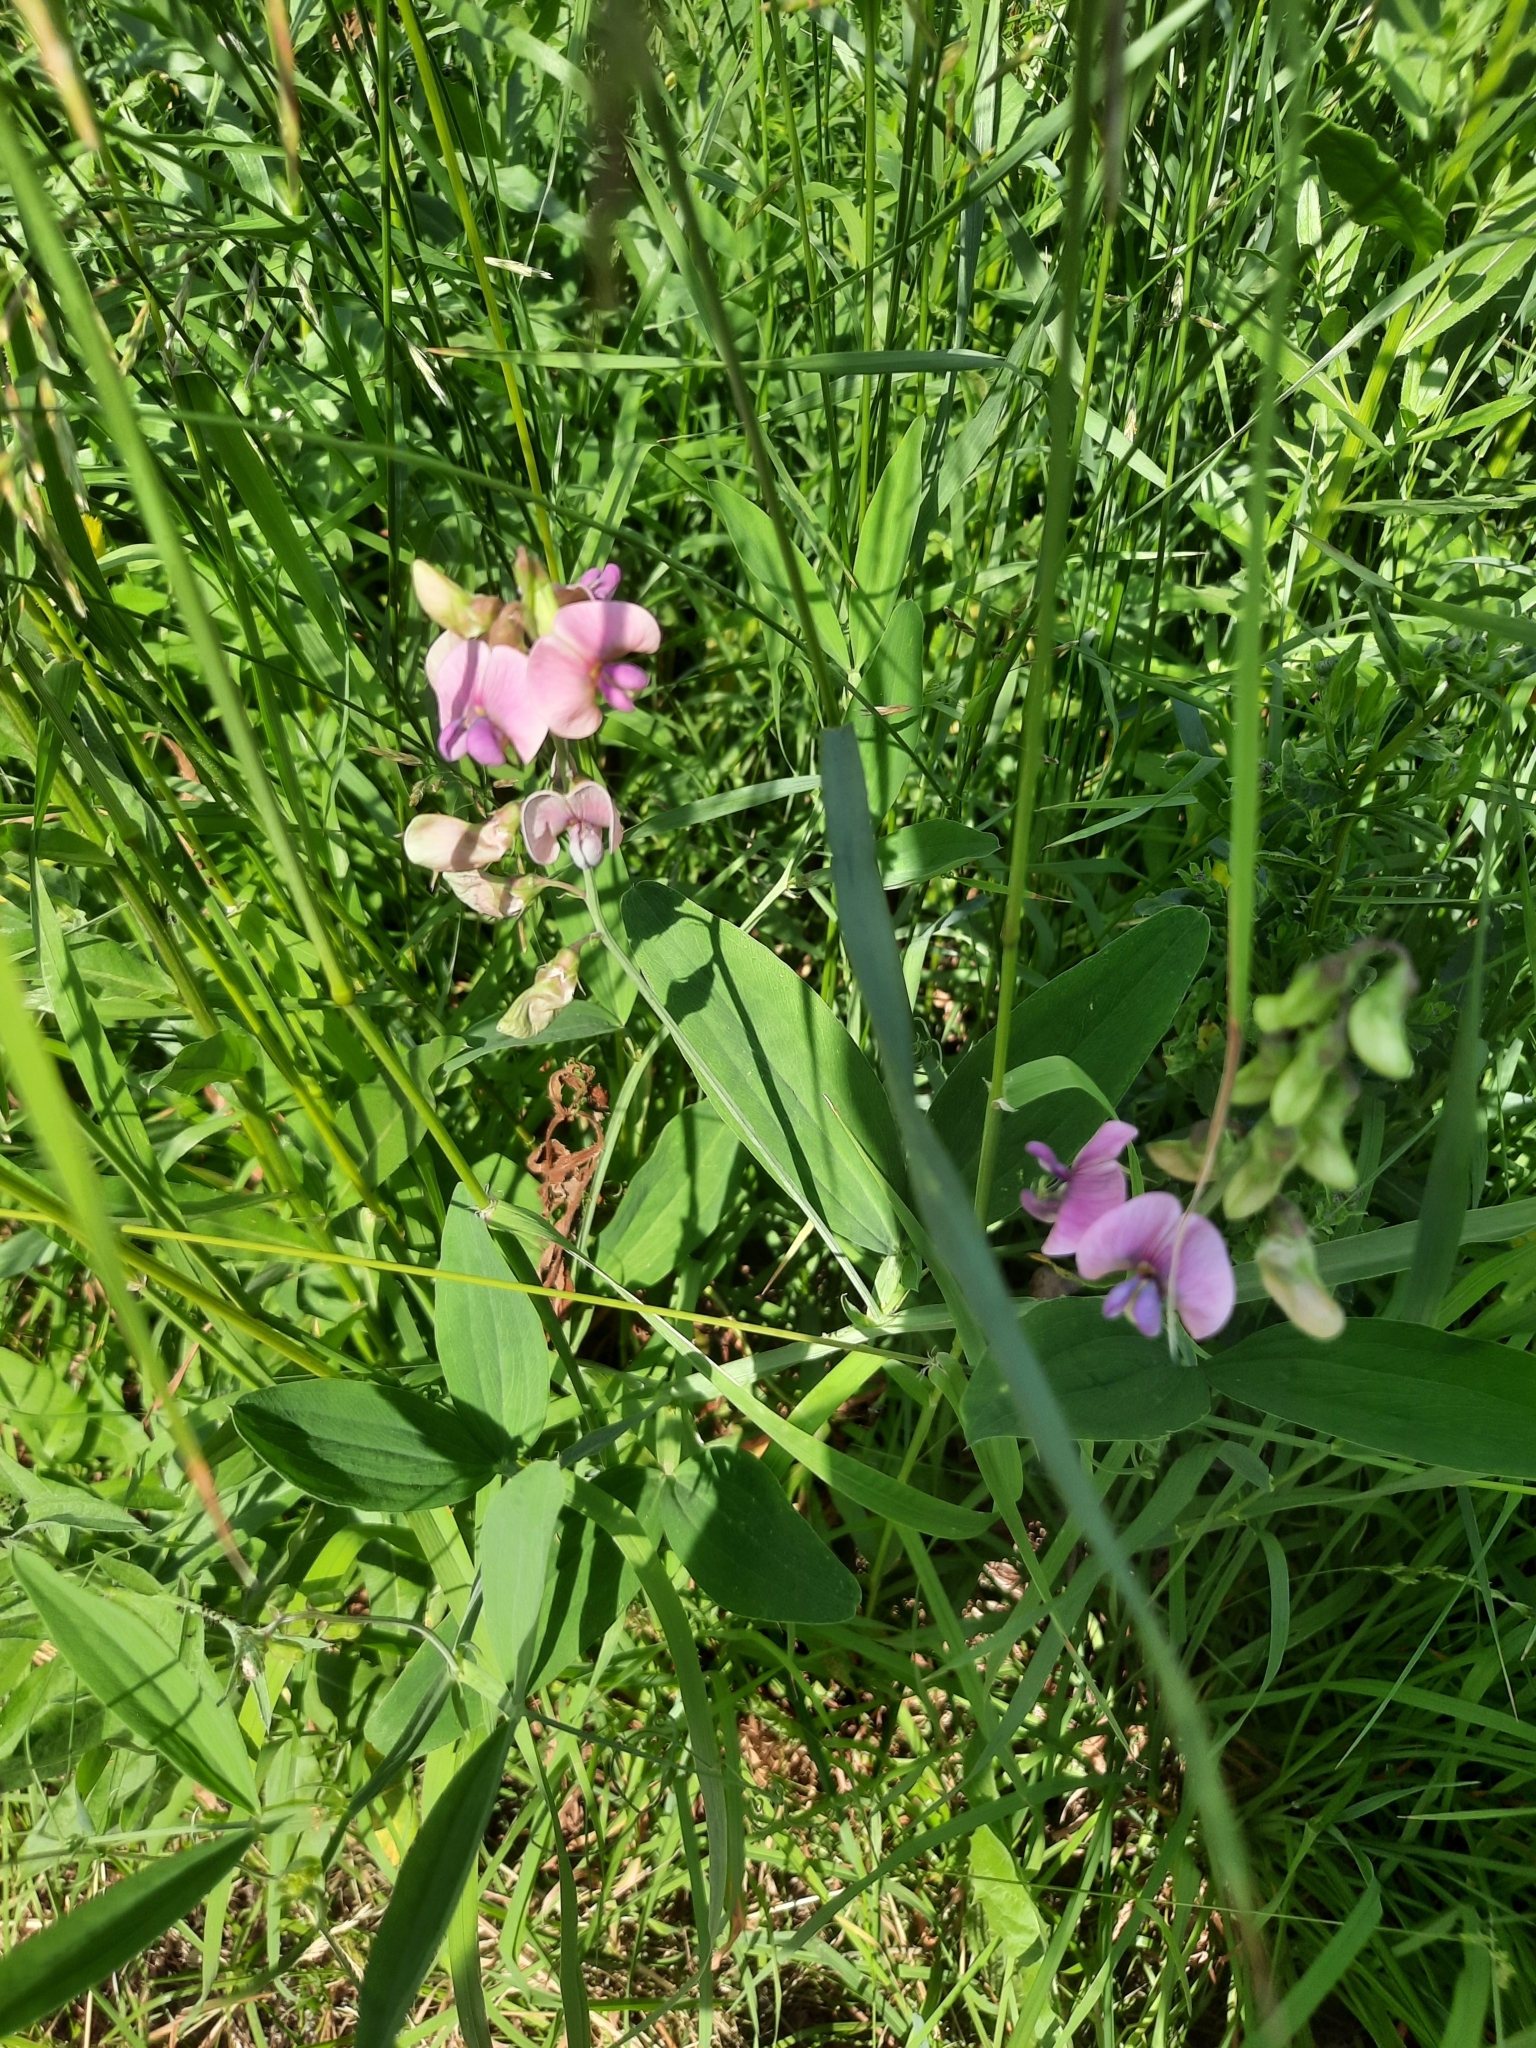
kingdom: Plantae
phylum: Tracheophyta
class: Magnoliopsida
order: Fabales
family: Fabaceae
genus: Lathyrus
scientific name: Lathyrus sylvestris
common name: Flat pea
